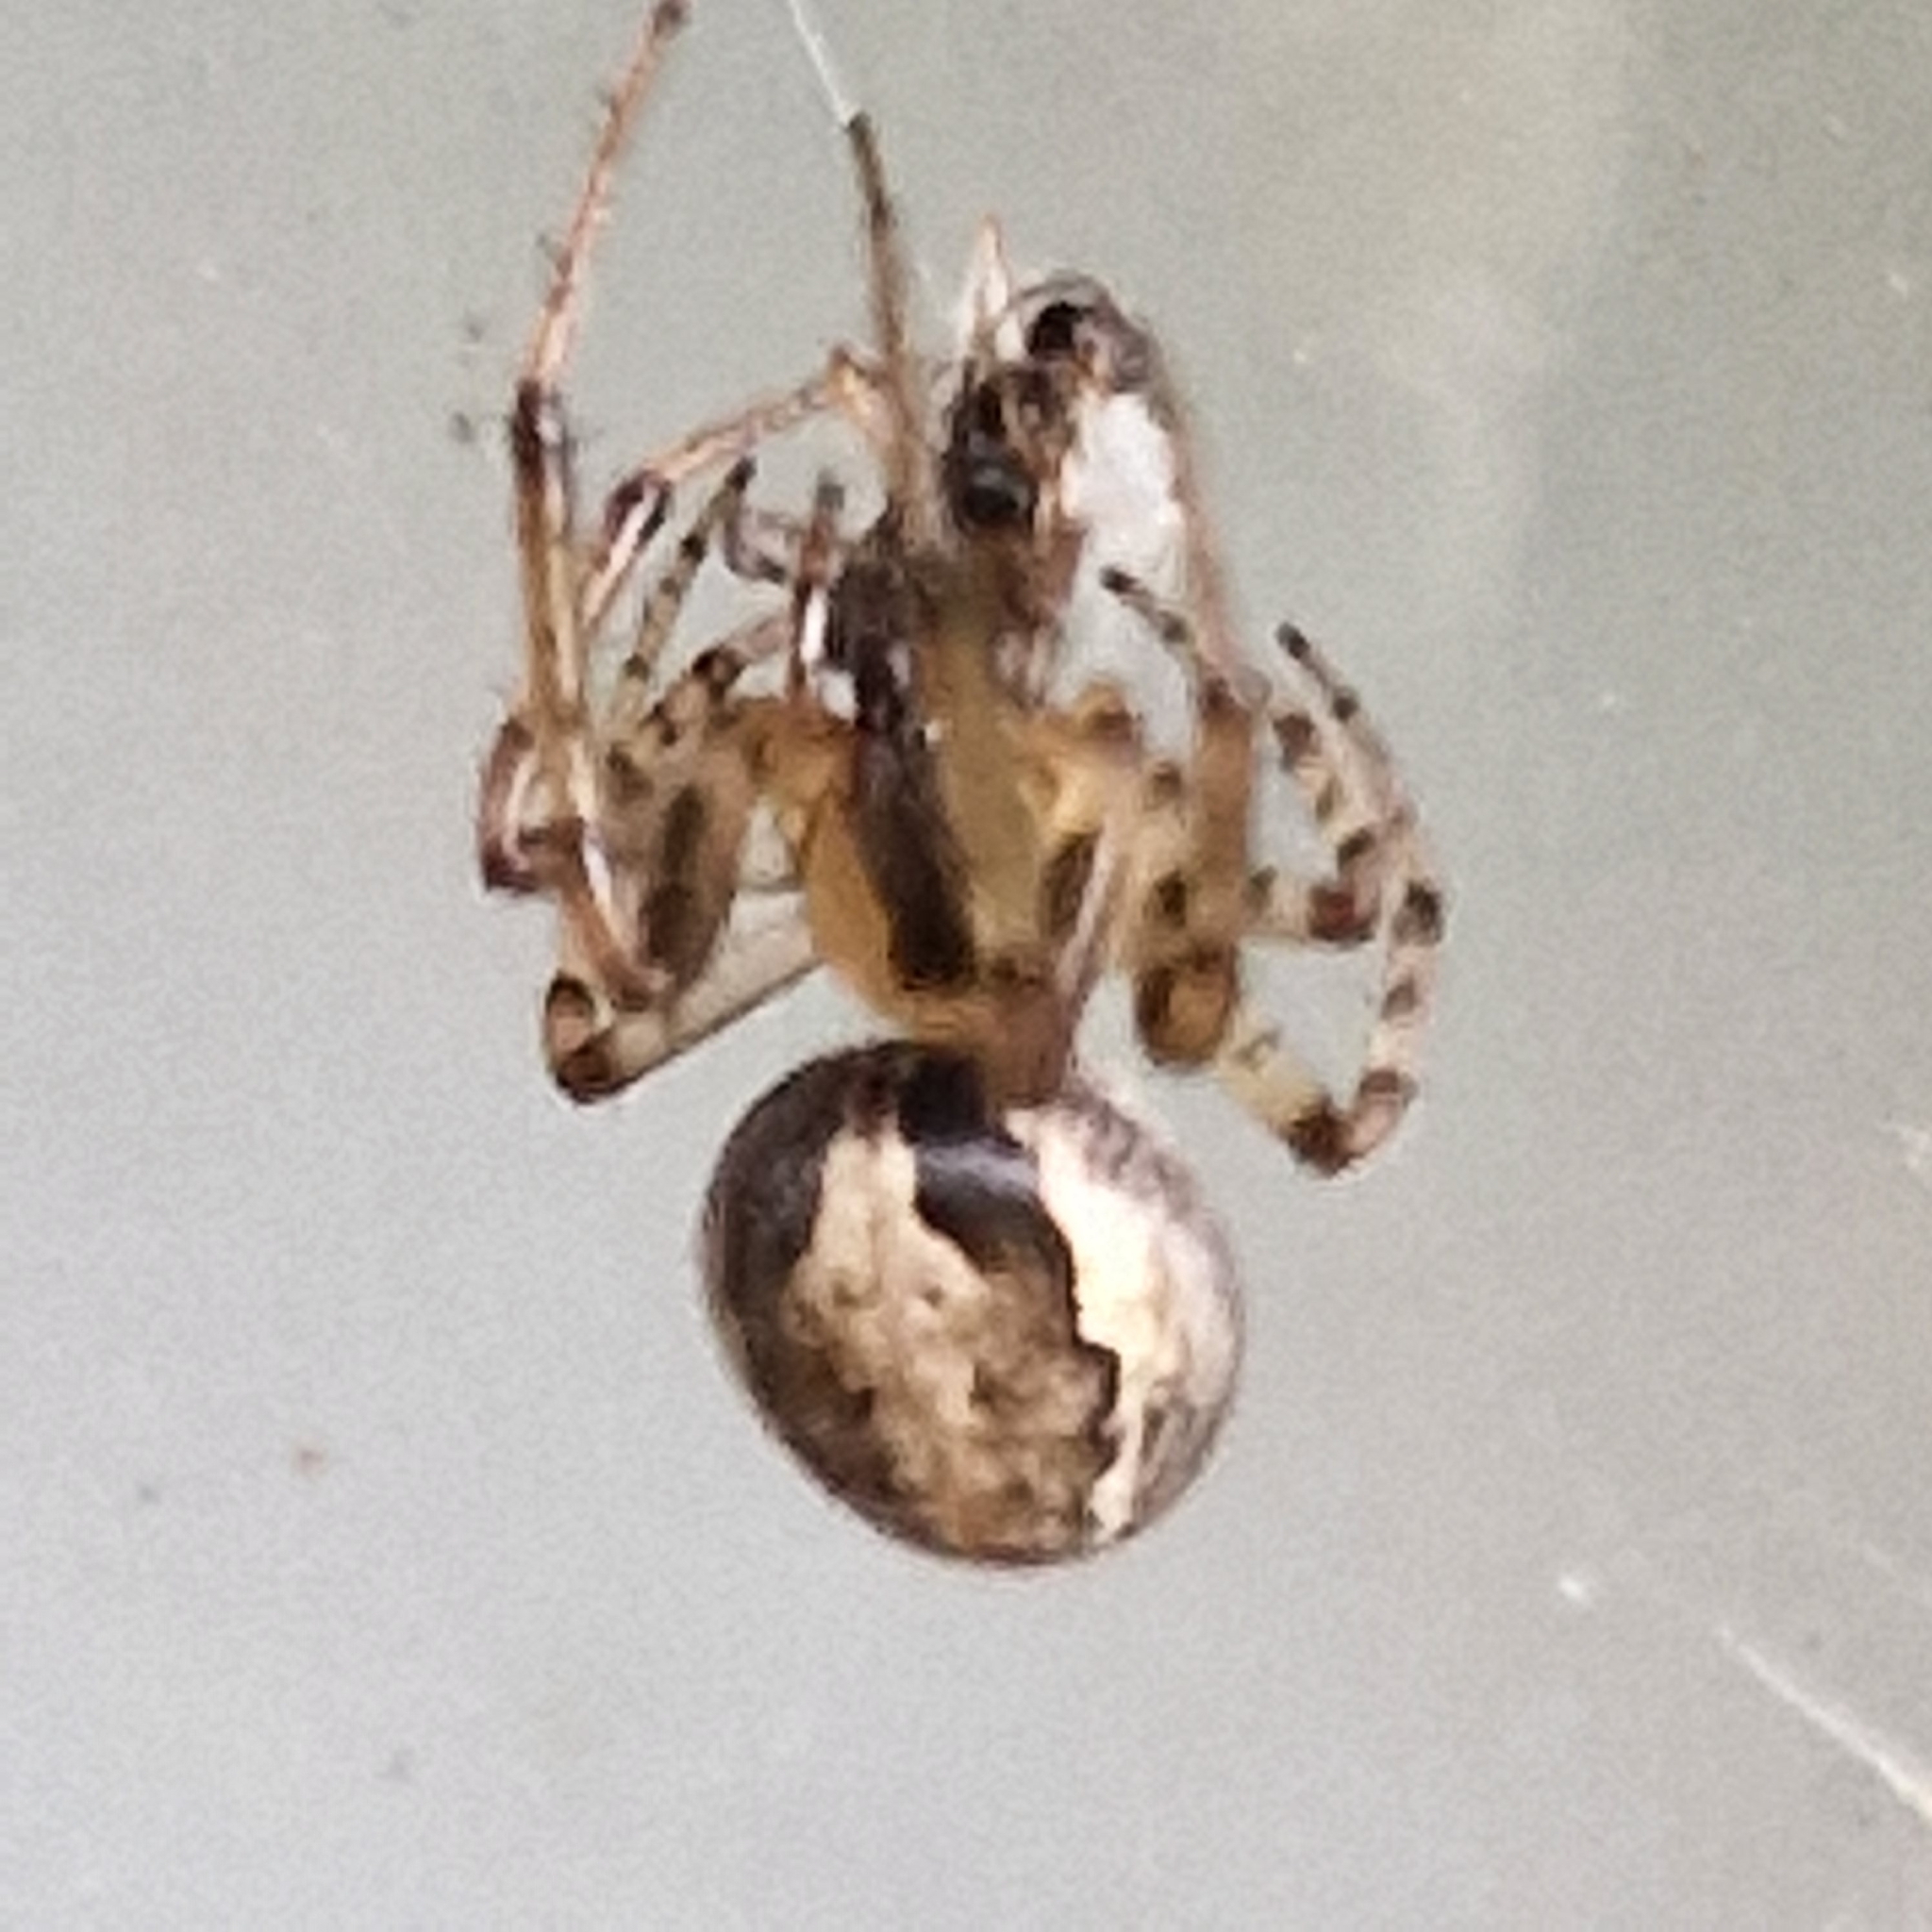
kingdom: Animalia
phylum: Arthropoda
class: Arachnida
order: Araneae
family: Araneidae
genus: Zygiella
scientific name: Zygiella x-notata
